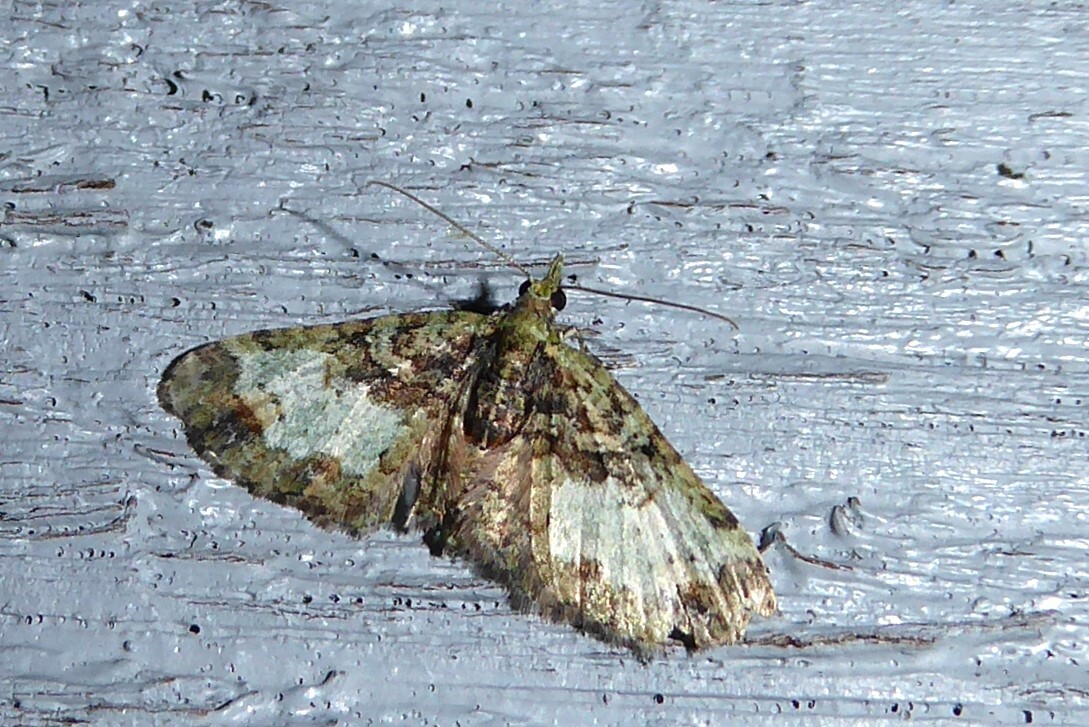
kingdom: Animalia
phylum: Arthropoda
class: Insecta
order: Lepidoptera
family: Geometridae
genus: Idaea
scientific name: Idaea mutanda
